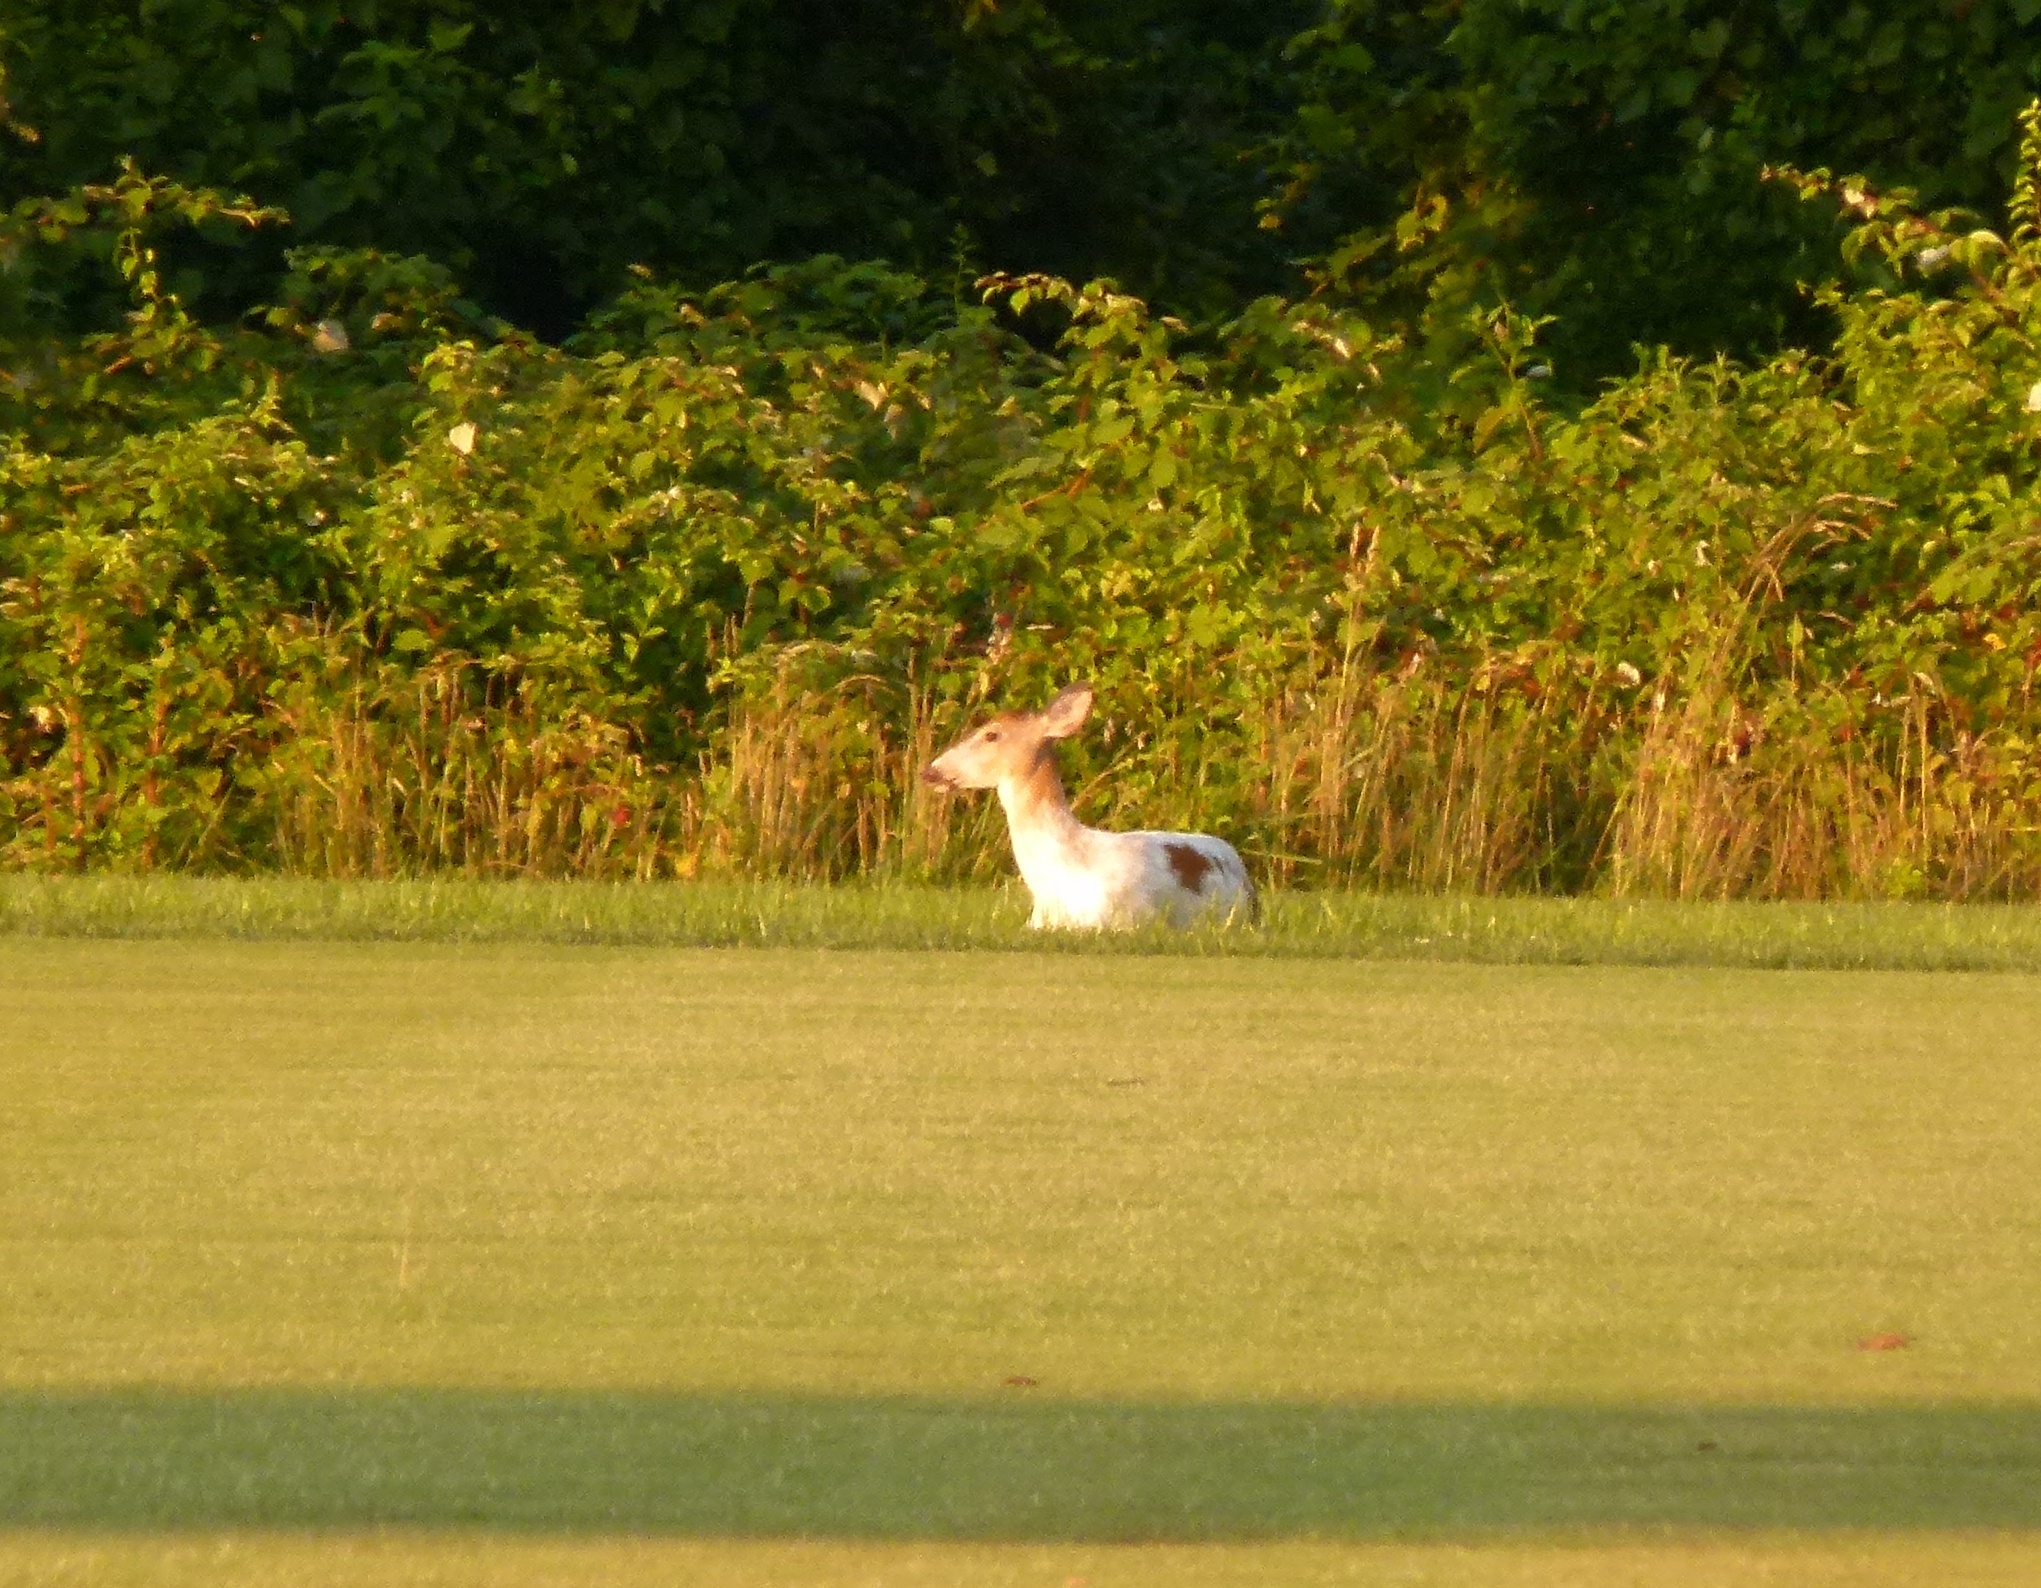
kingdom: Animalia
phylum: Chordata
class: Mammalia
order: Artiodactyla
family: Cervidae
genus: Odocoileus
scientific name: Odocoileus virginianus
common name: White-tailed deer
